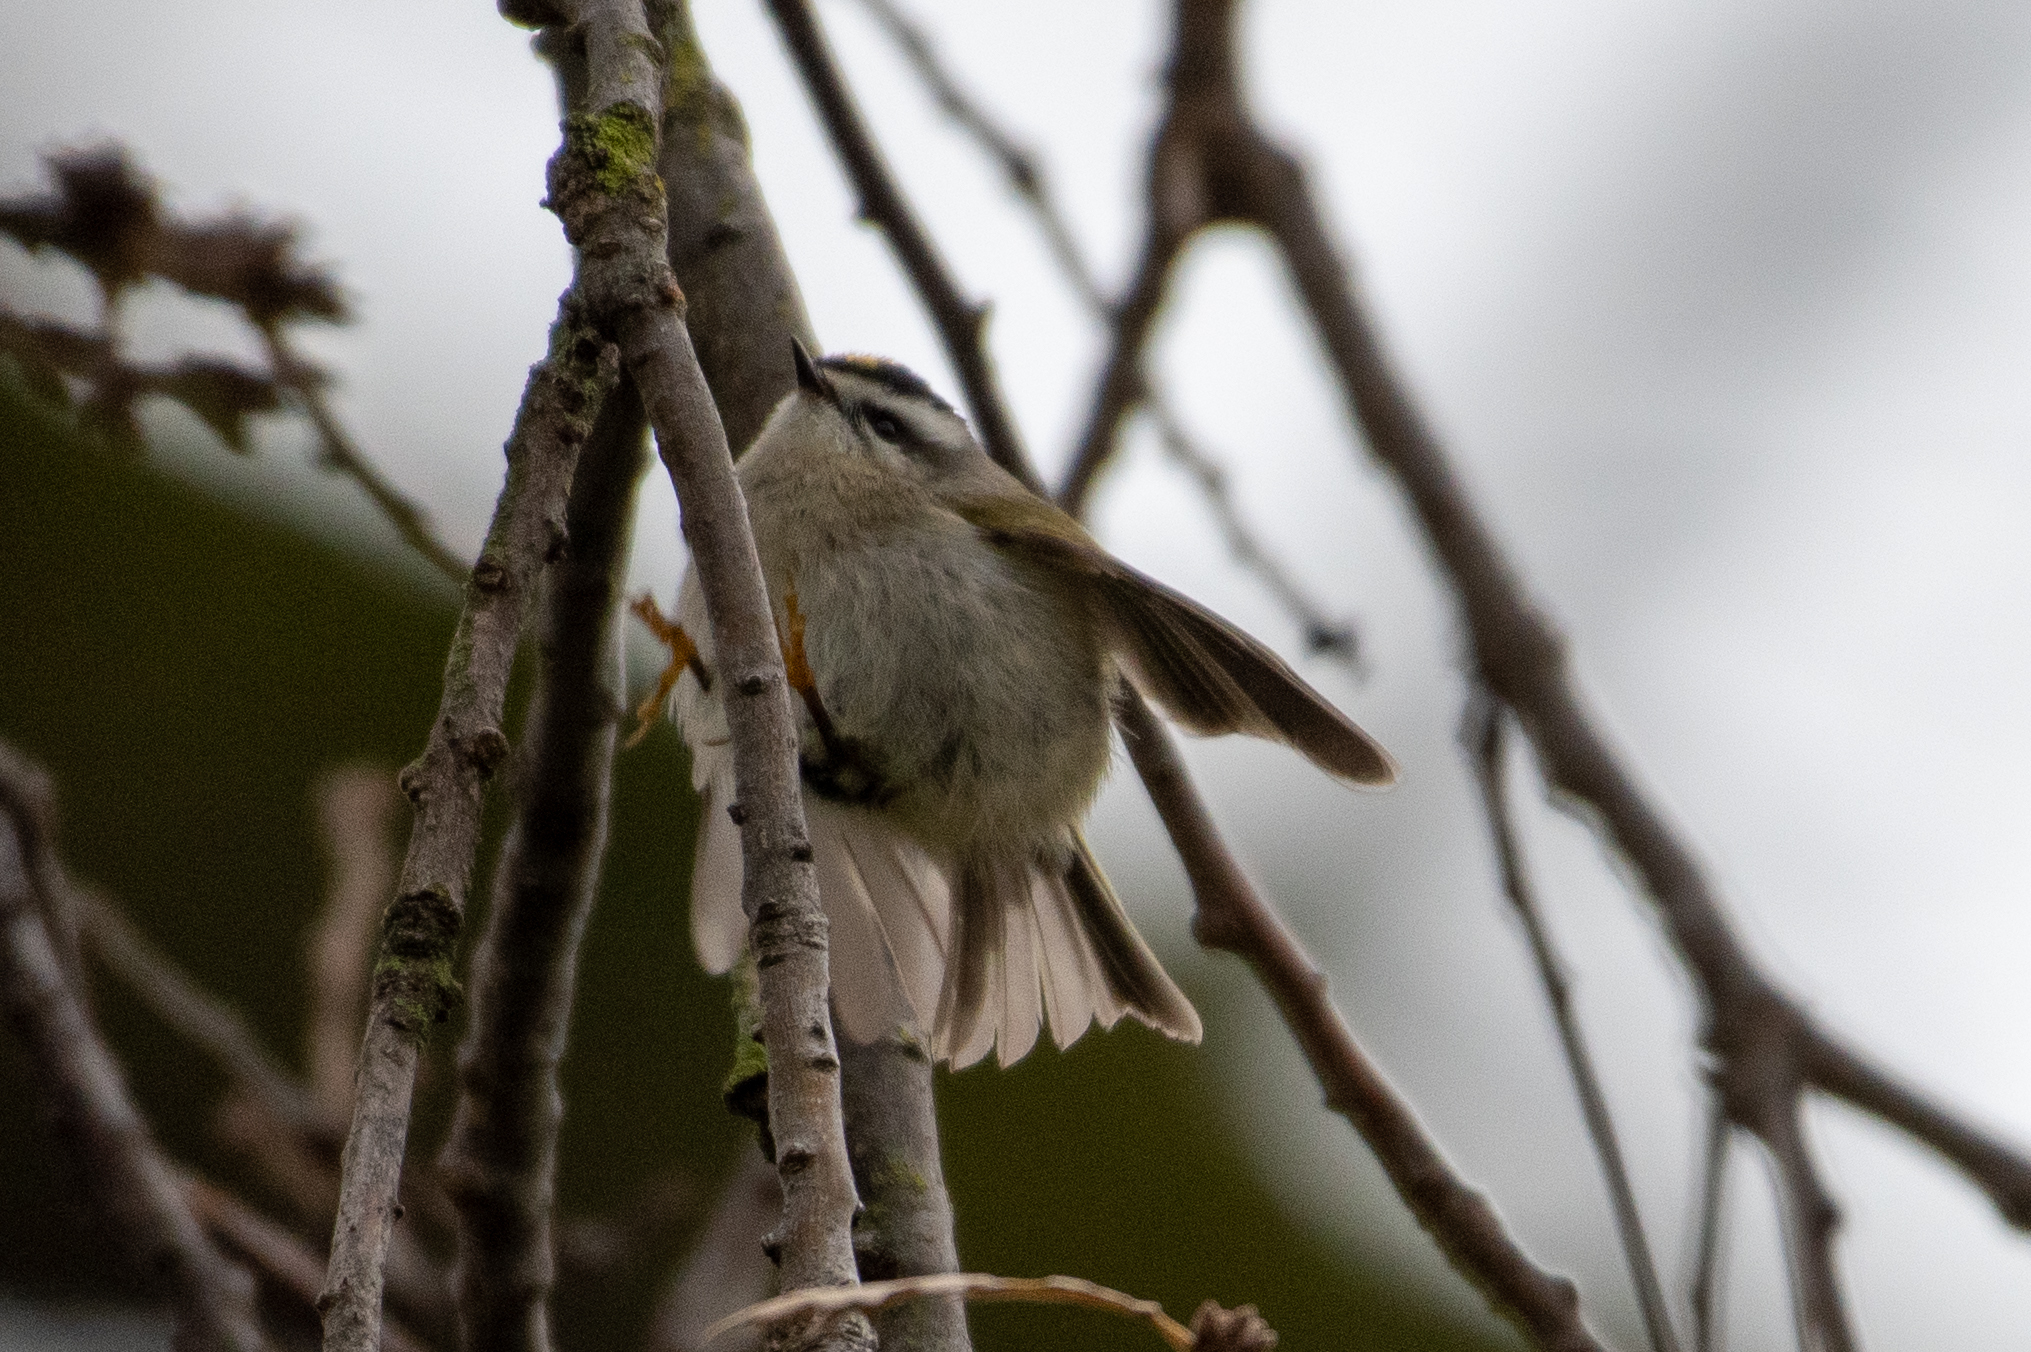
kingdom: Animalia
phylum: Chordata
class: Aves
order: Passeriformes
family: Regulidae
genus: Regulus
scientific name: Regulus satrapa
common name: Golden-crowned kinglet
